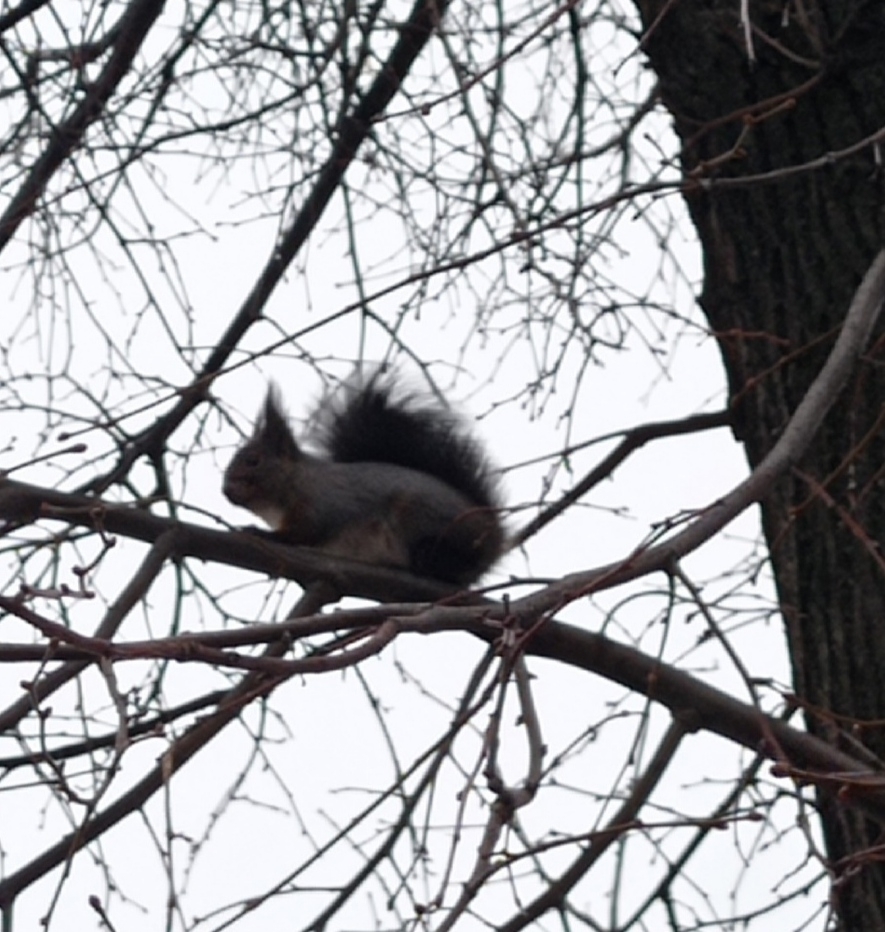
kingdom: Animalia
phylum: Chordata
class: Mammalia
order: Rodentia
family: Sciuridae
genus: Sciurus
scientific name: Sciurus vulgaris
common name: Eurasian red squirrel
